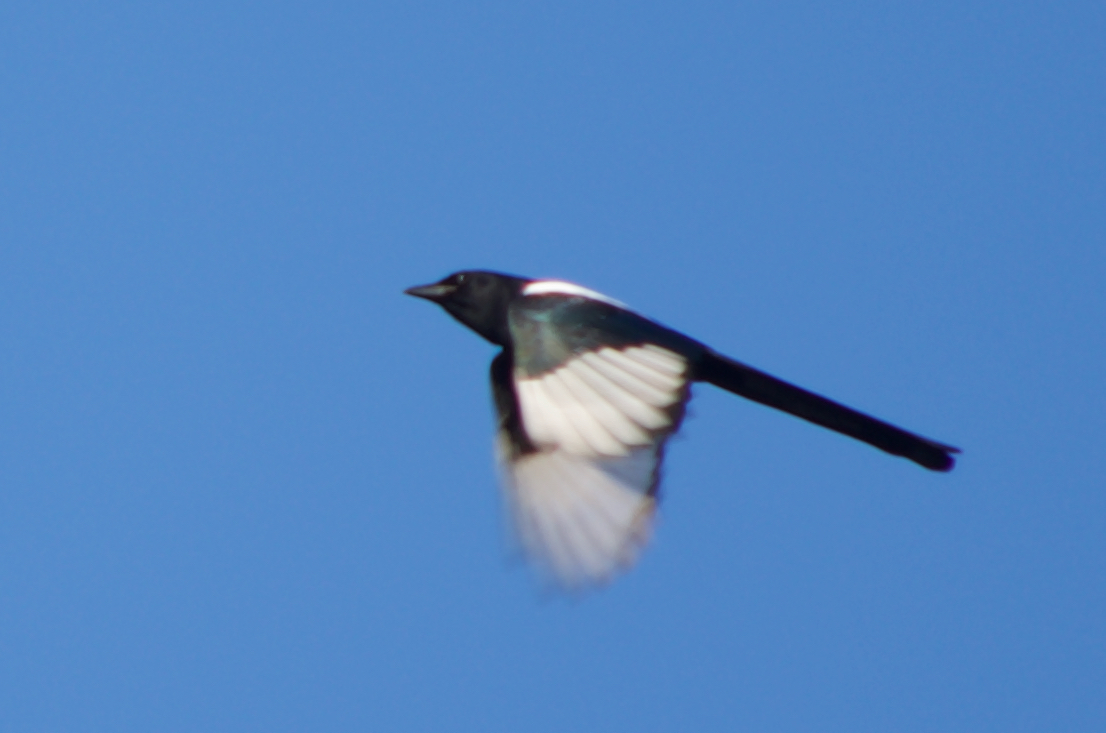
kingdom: Animalia
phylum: Chordata
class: Aves
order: Passeriformes
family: Corvidae
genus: Pica
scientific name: Pica pica
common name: Eurasian magpie
